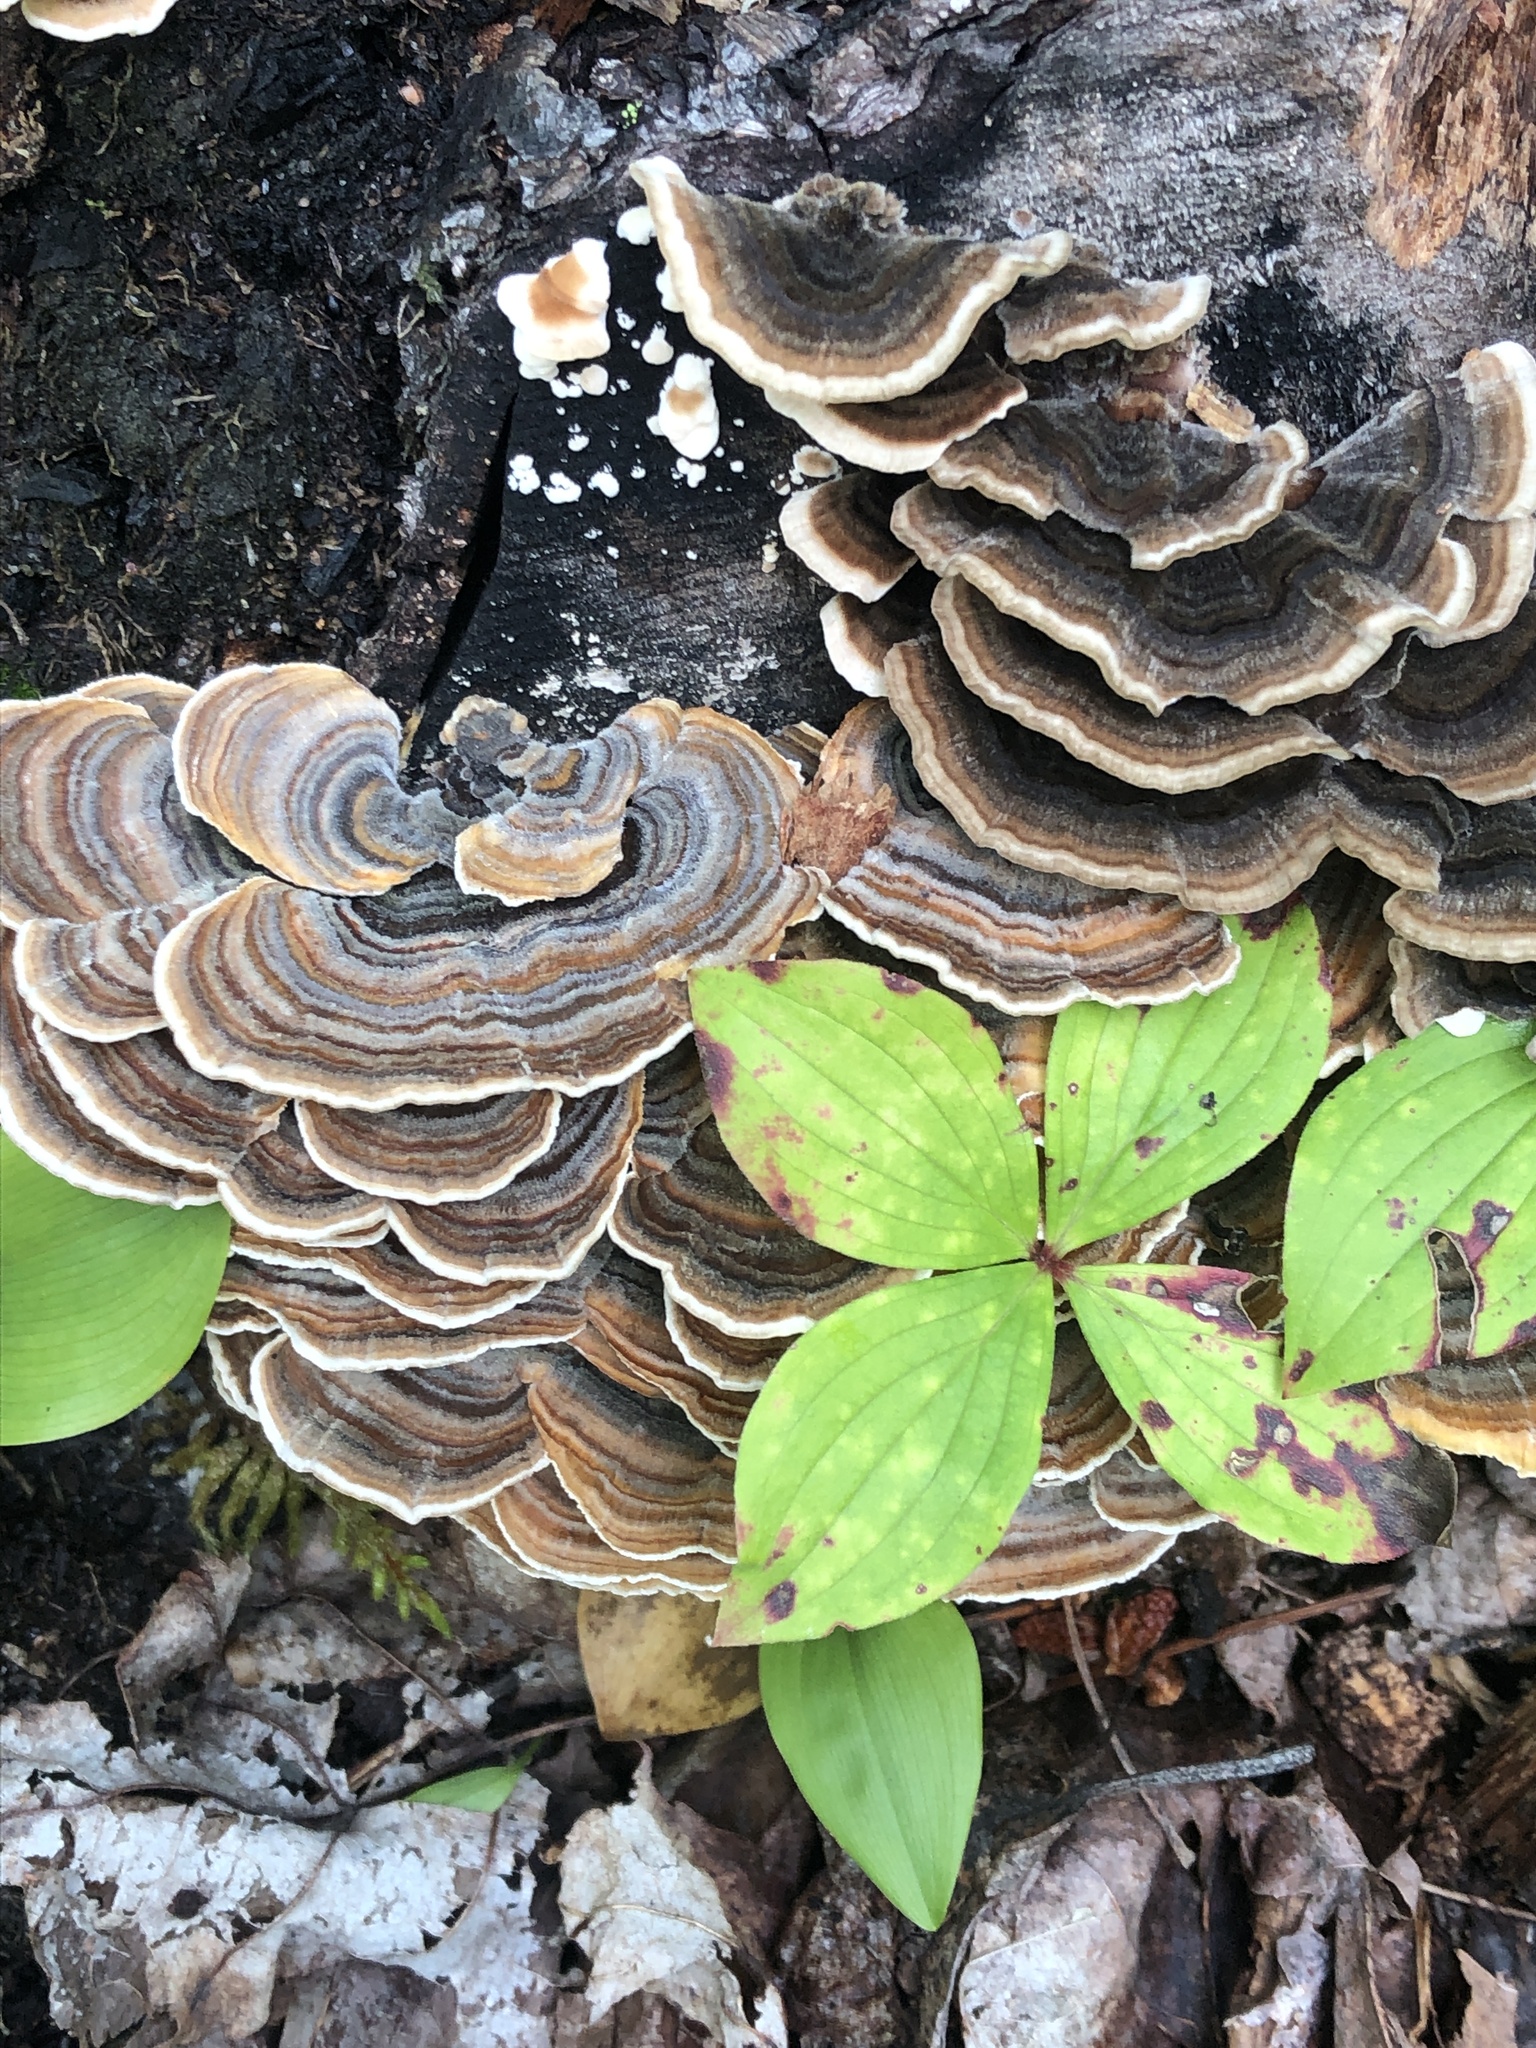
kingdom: Fungi
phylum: Basidiomycota
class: Agaricomycetes
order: Polyporales
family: Polyporaceae
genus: Trametes
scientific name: Trametes versicolor
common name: Turkeytail
